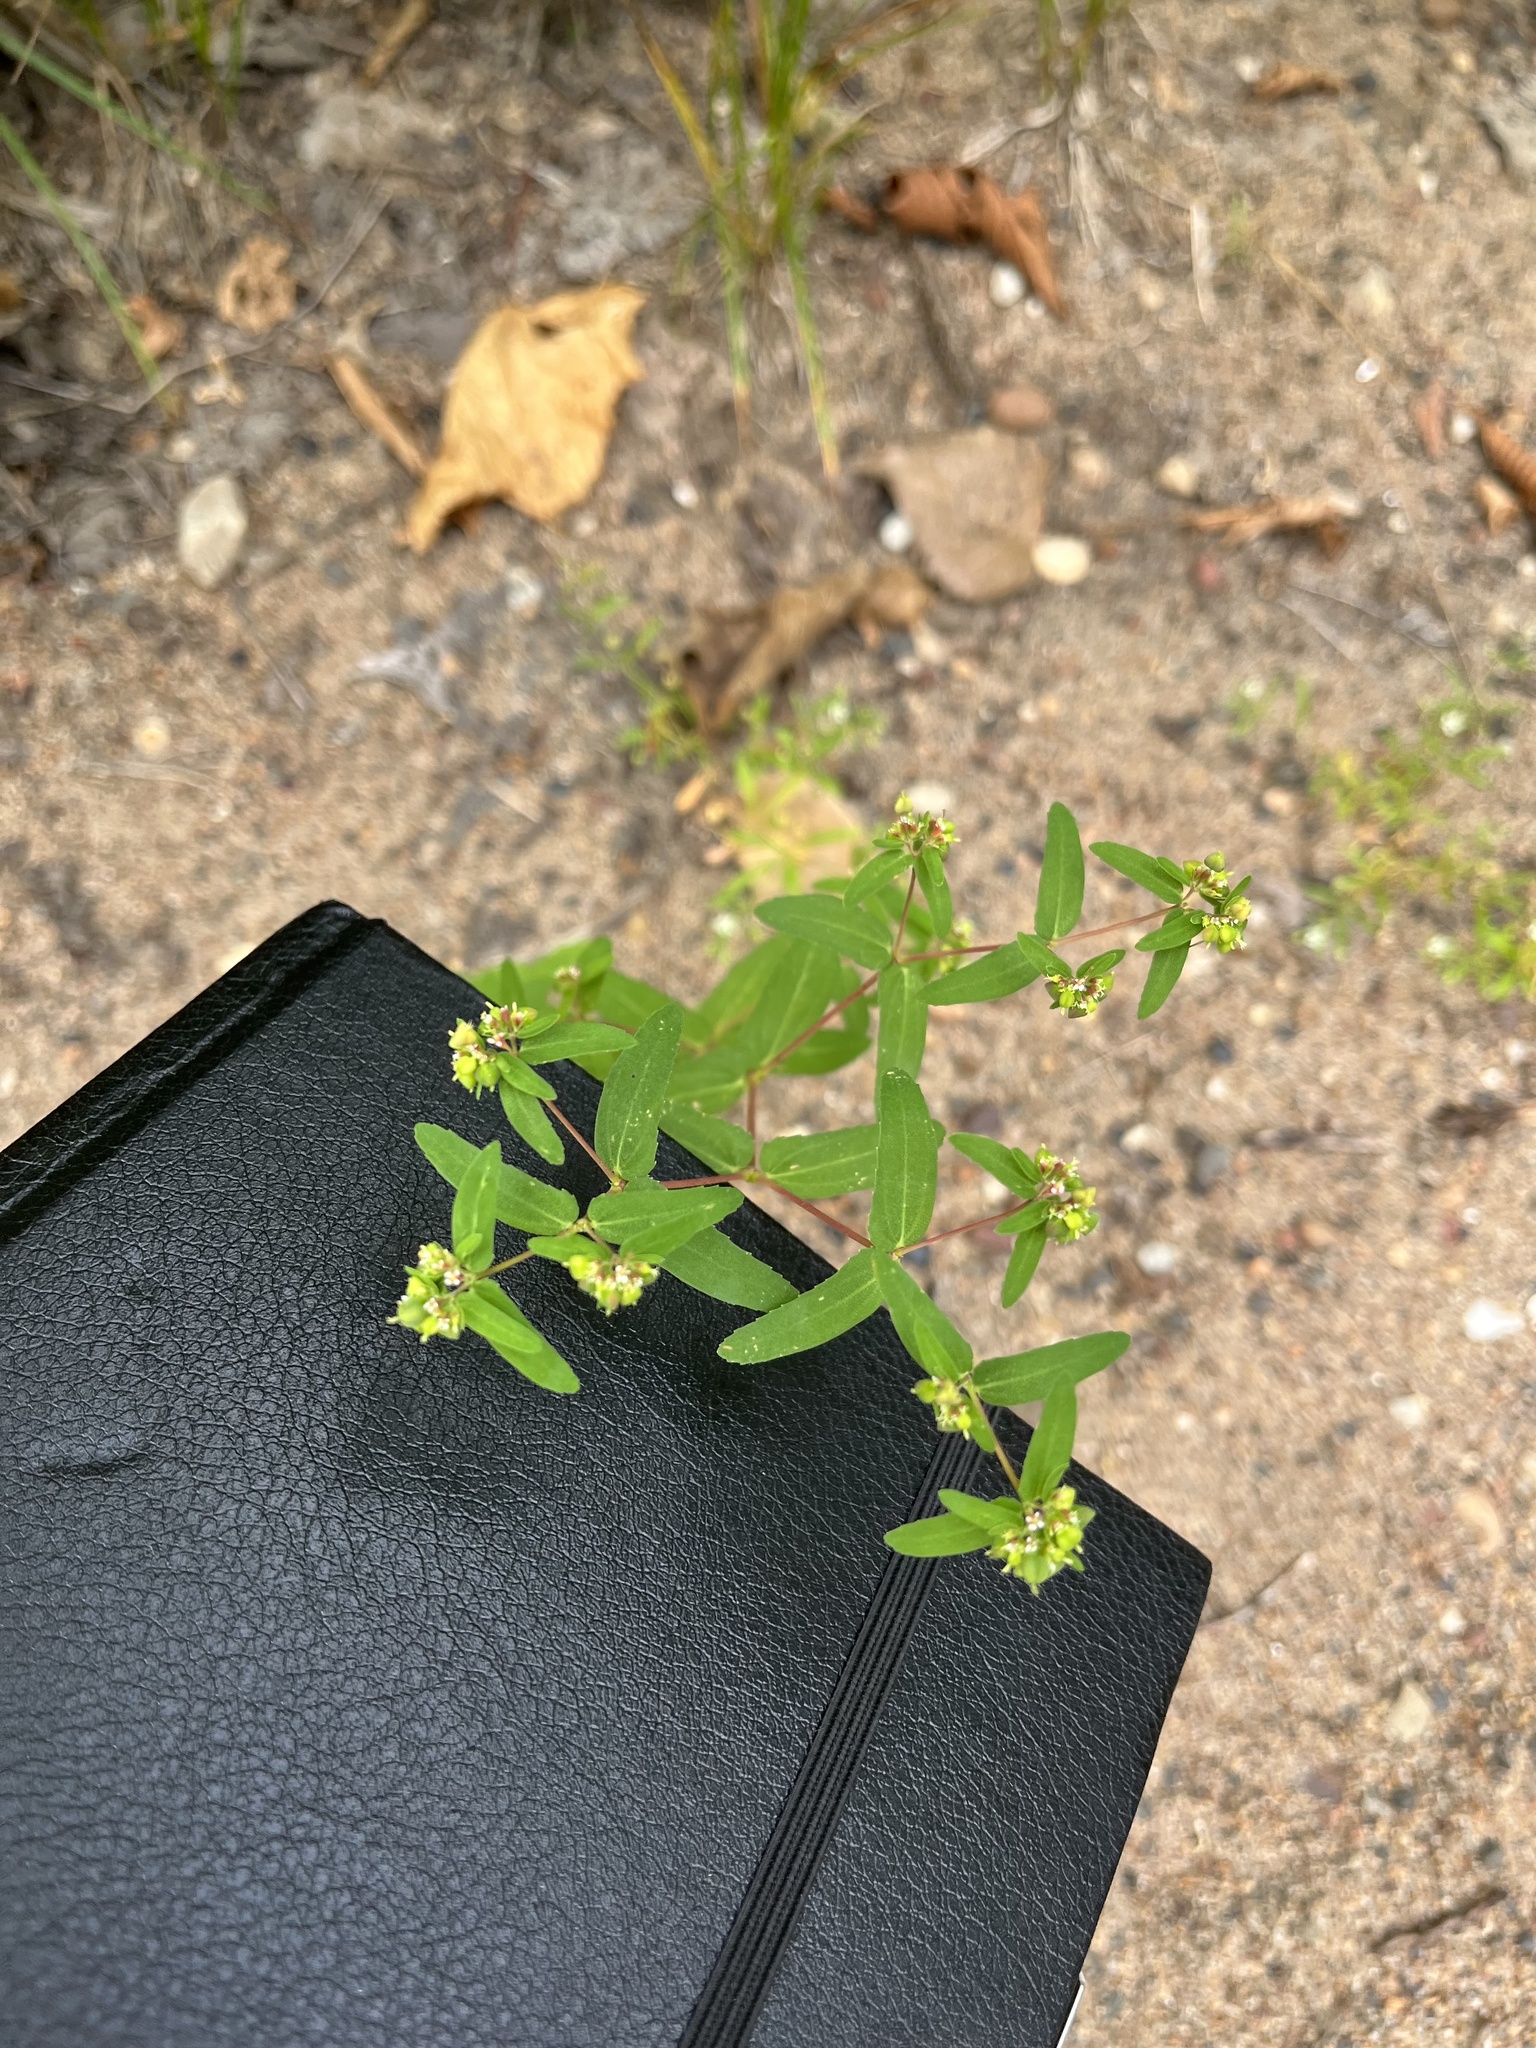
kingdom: Plantae
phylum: Tracheophyta
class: Magnoliopsida
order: Malpighiales
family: Euphorbiaceae
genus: Euphorbia
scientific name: Euphorbia nutans
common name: Eyebane
